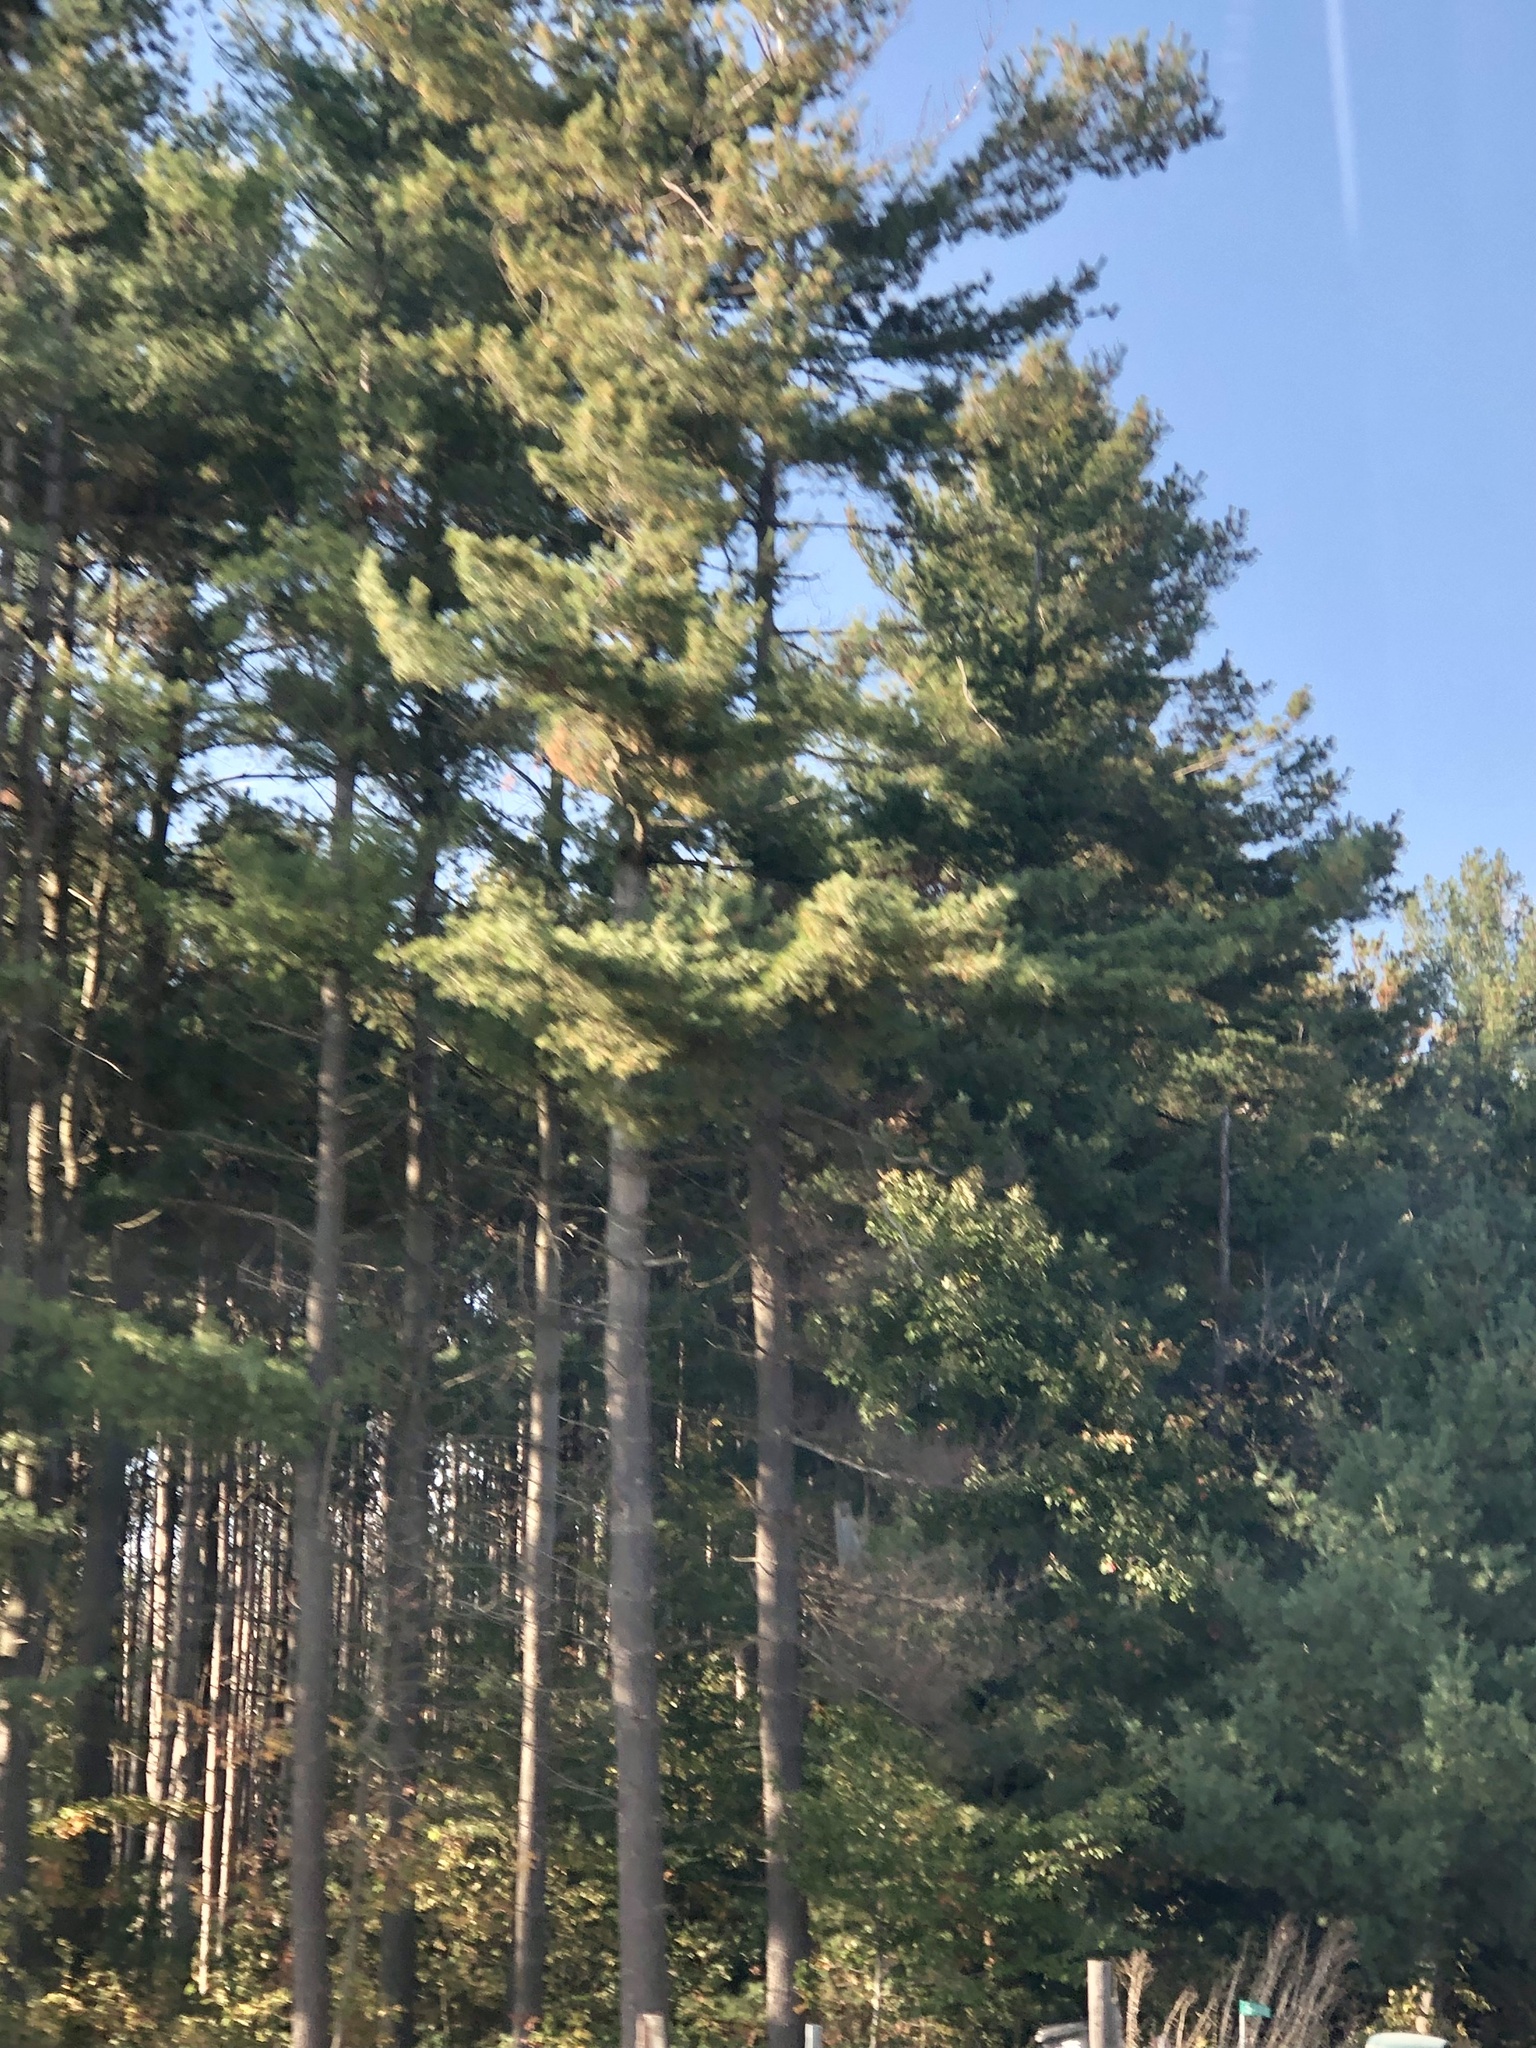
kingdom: Plantae
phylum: Tracheophyta
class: Pinopsida
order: Pinales
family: Pinaceae
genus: Pinus
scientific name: Pinus strobus
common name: Weymouth pine
